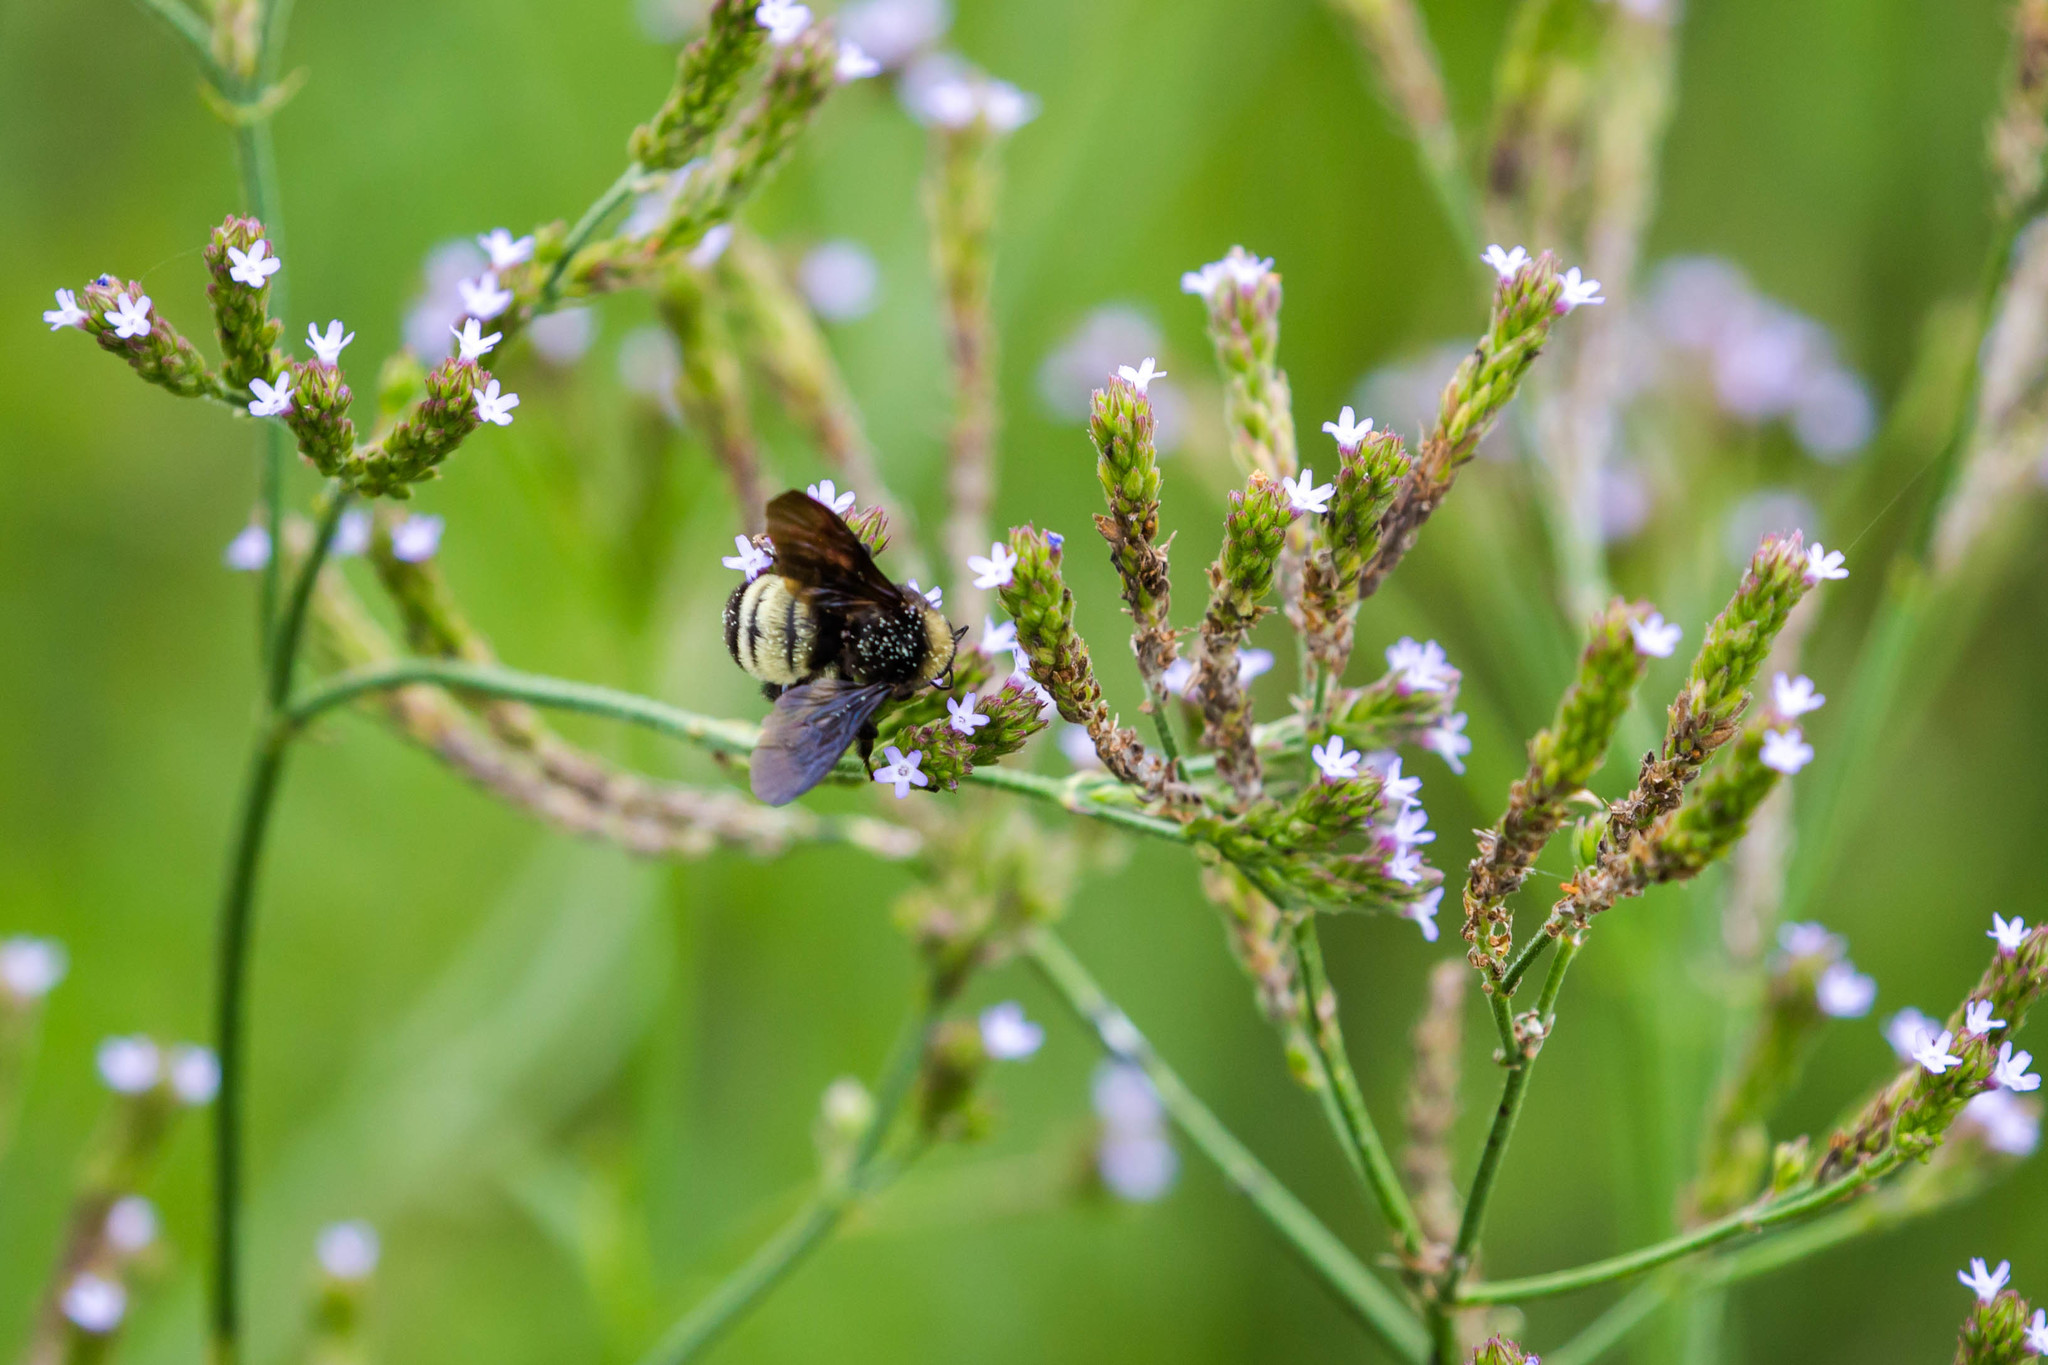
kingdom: Animalia
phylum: Arthropoda
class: Insecta
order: Hymenoptera
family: Apidae
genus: Bombus
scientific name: Bombus pensylvanicus
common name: Bumble bee
